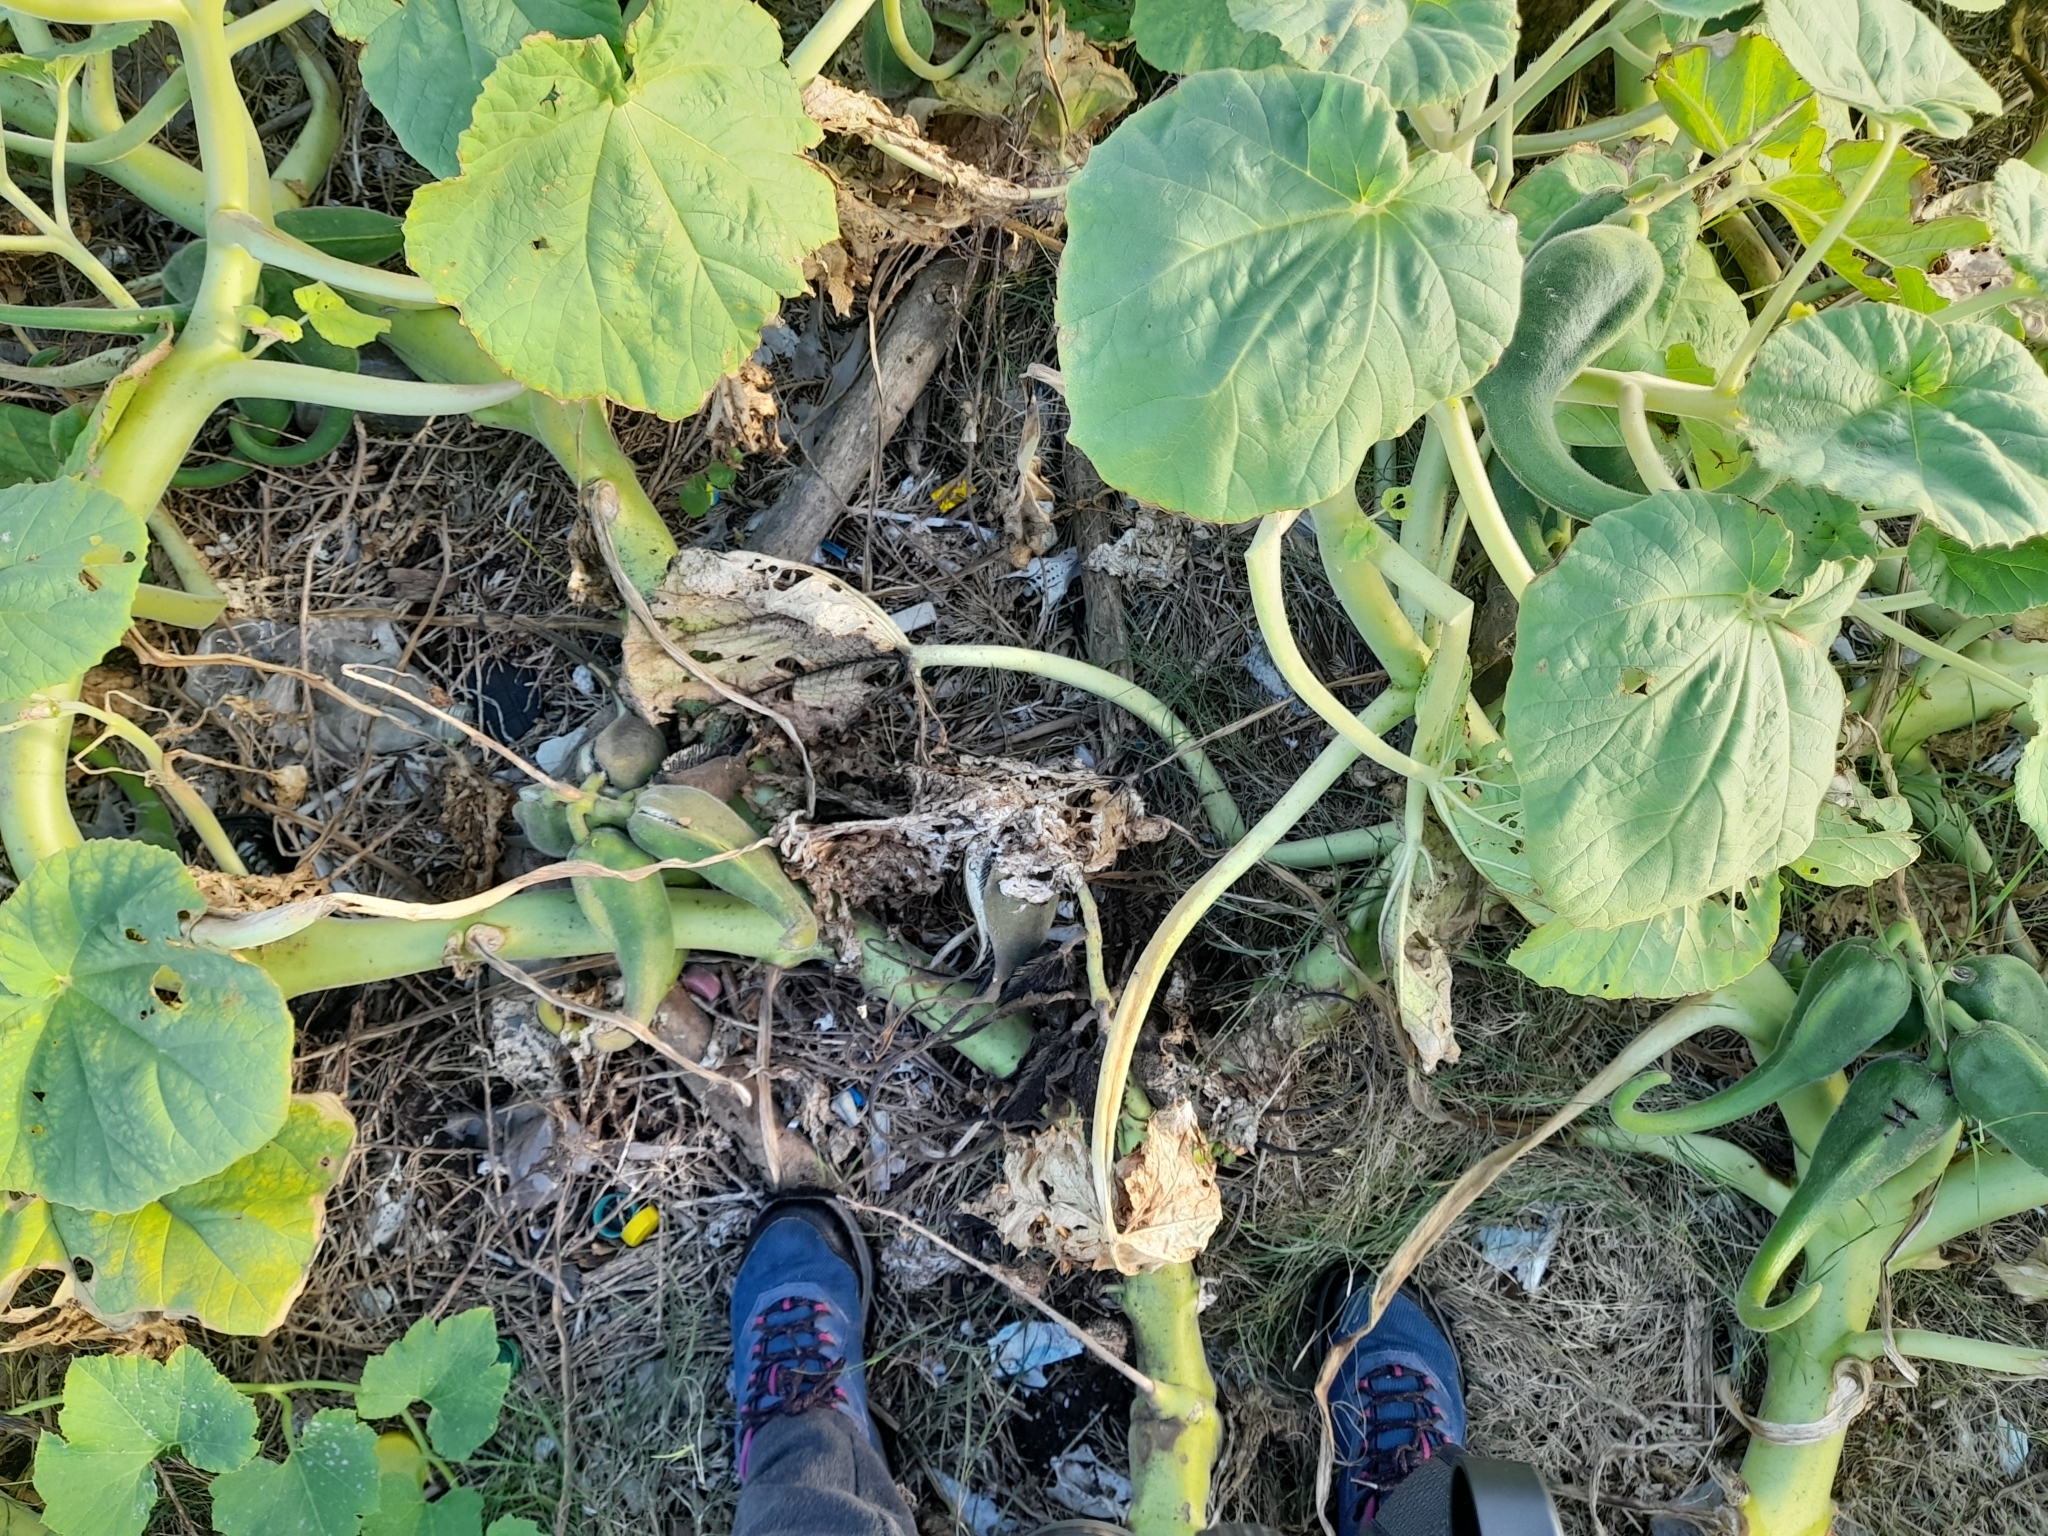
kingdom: Plantae
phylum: Tracheophyta
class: Magnoliopsida
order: Lamiales
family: Martyniaceae
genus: Ibicella
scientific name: Ibicella lutea
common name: Yellow unicorn-plant
